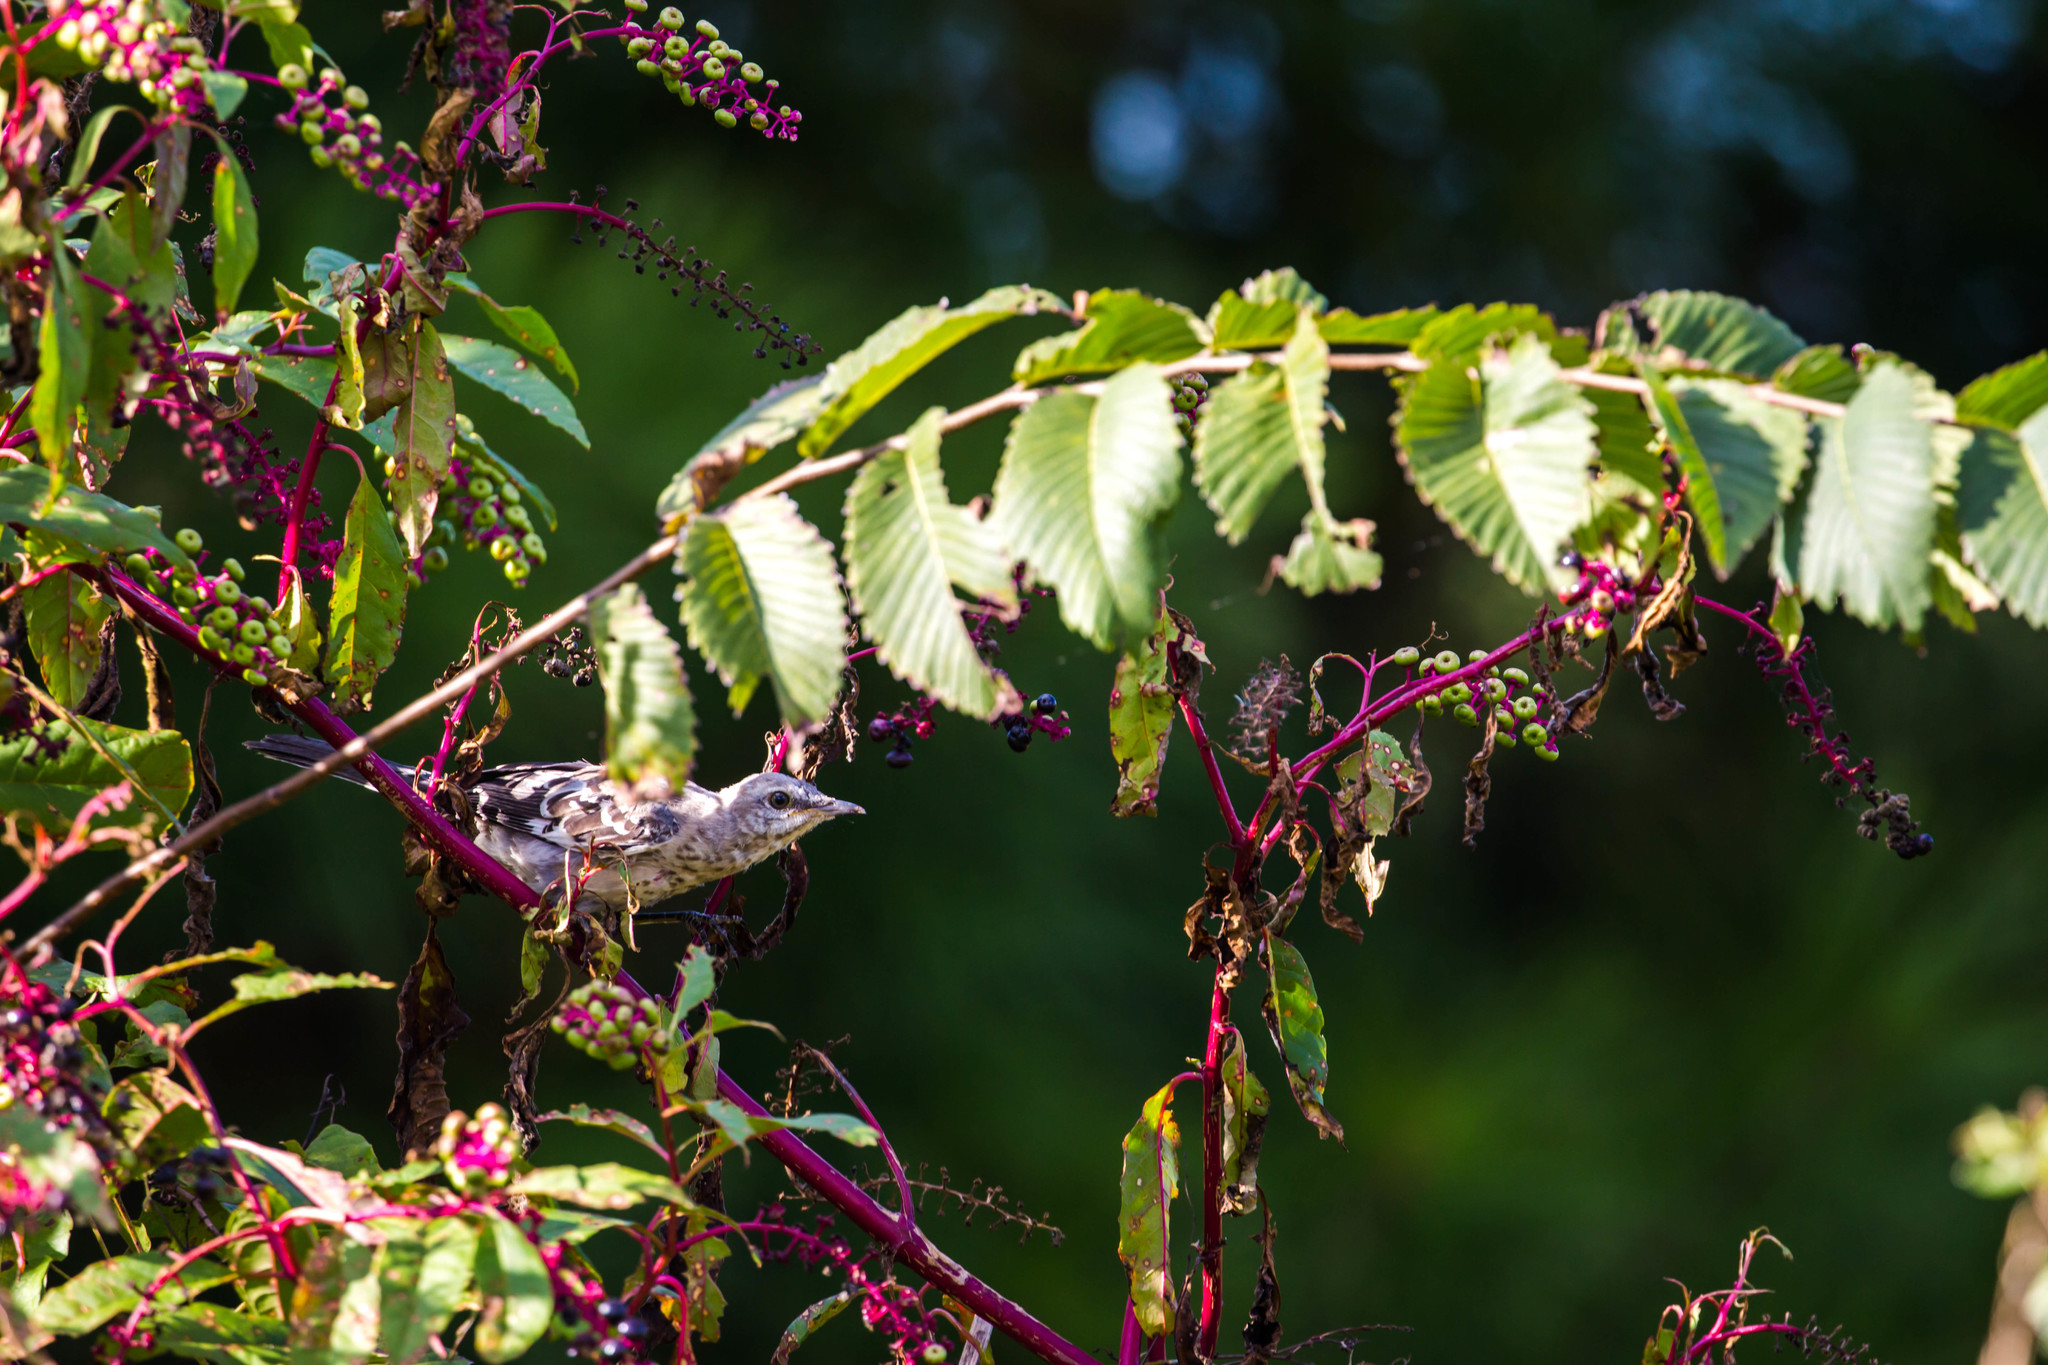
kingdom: Animalia
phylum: Chordata
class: Aves
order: Passeriformes
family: Mimidae
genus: Mimus
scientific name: Mimus polyglottos
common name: Northern mockingbird
